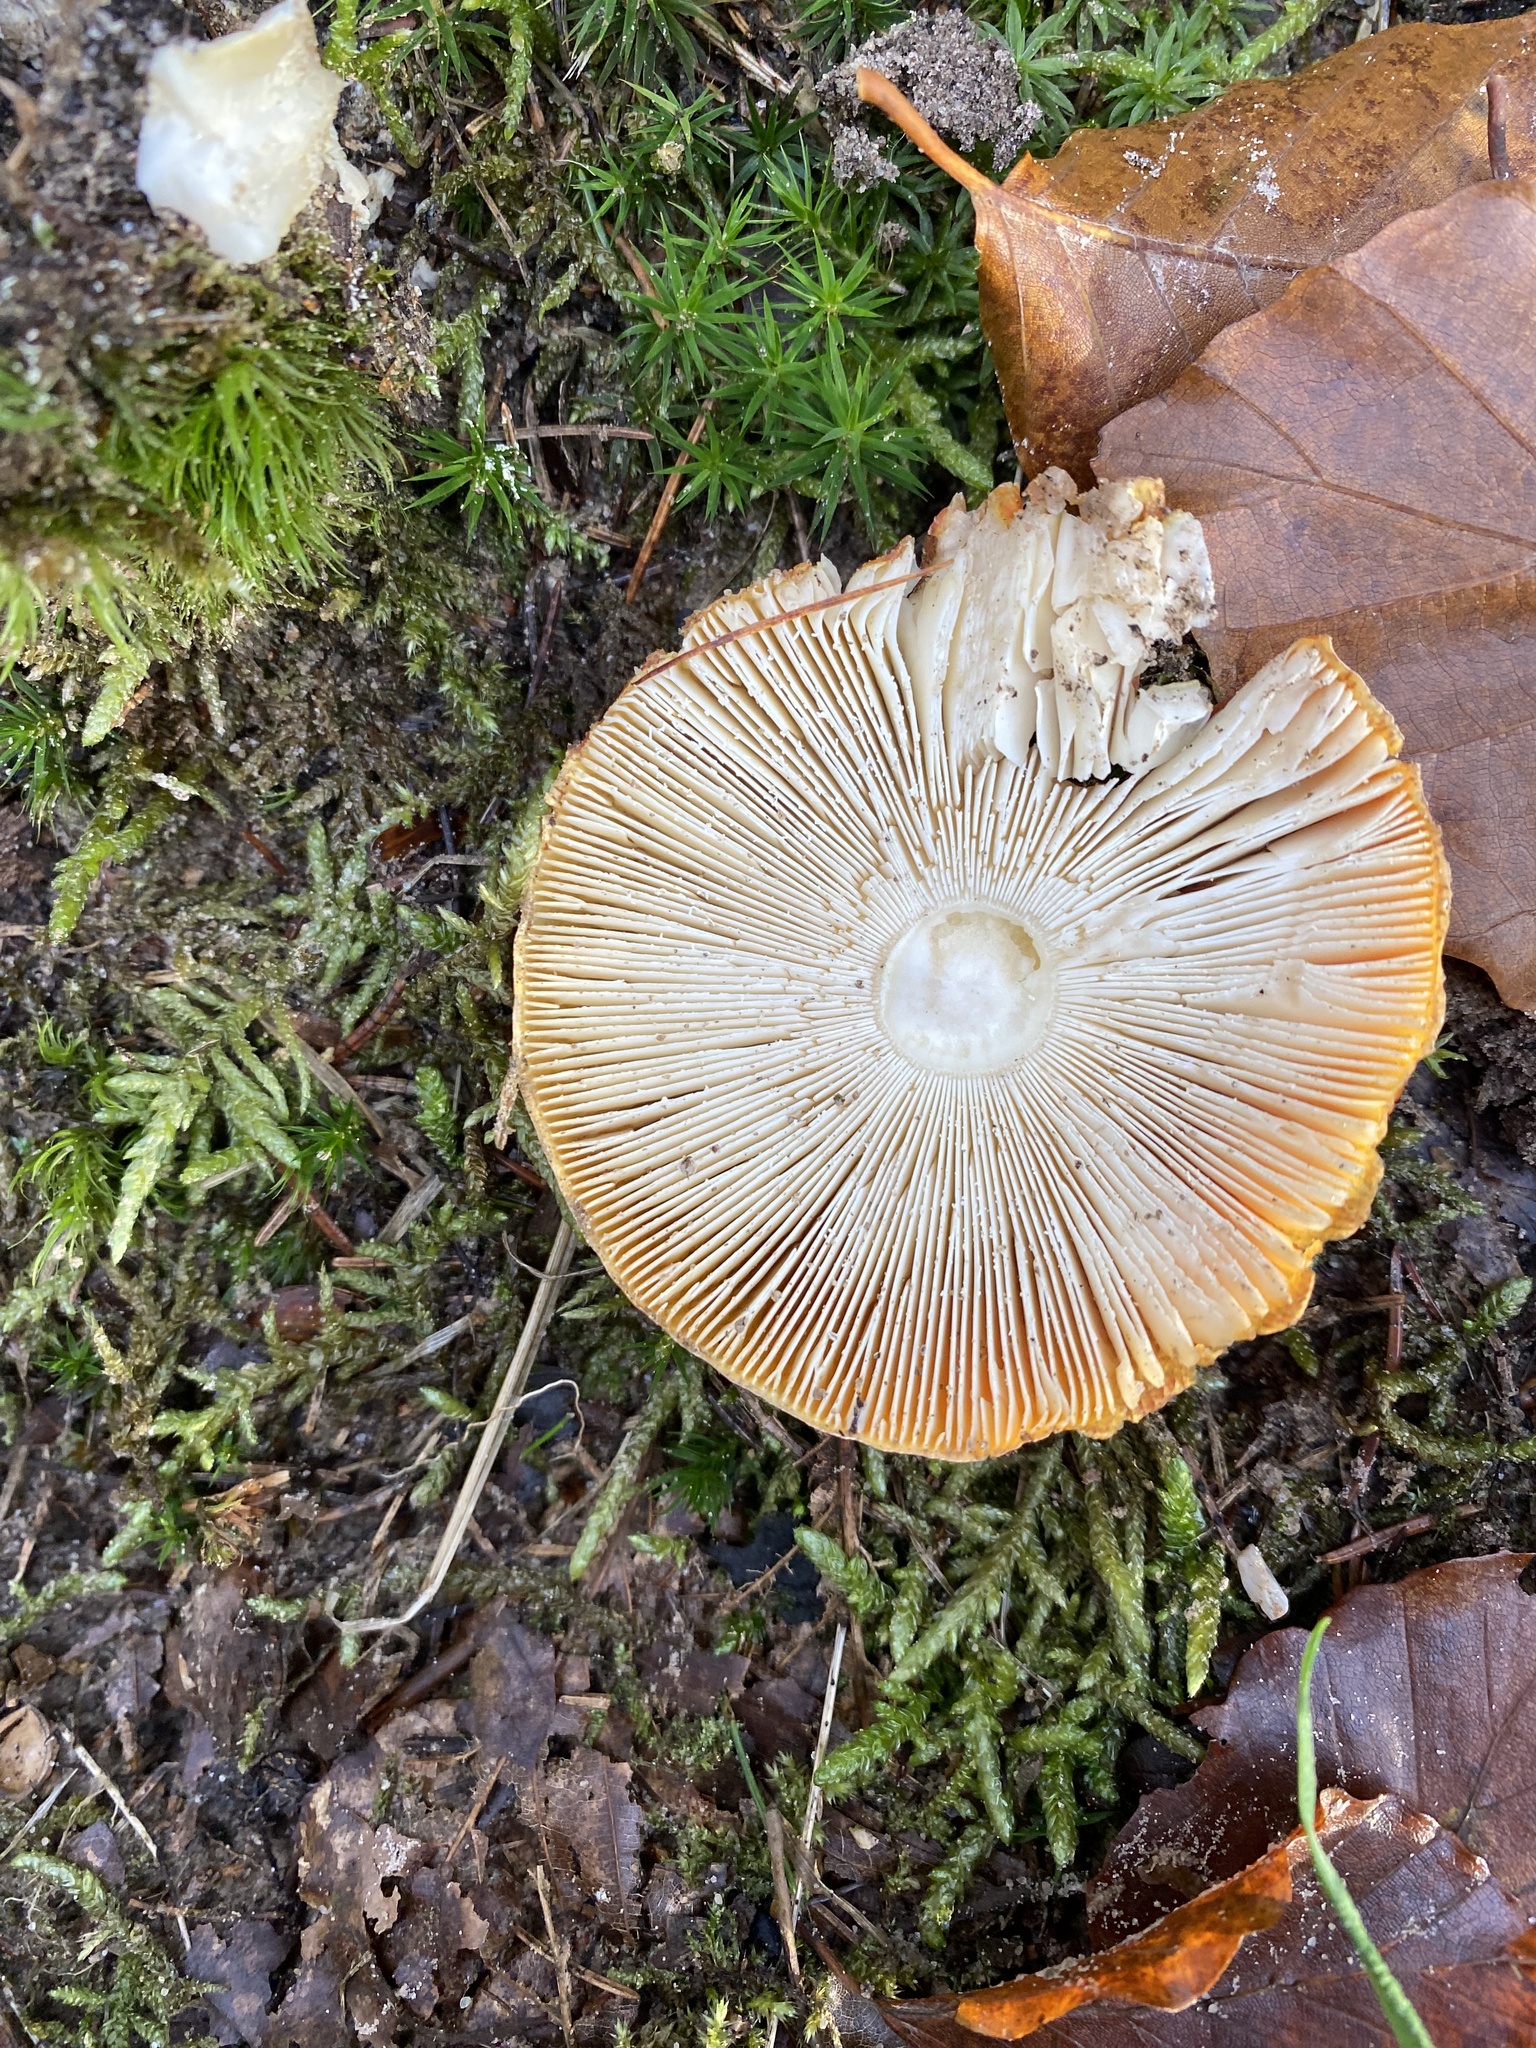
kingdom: Fungi
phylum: Basidiomycota
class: Agaricomycetes
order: Agaricales
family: Amanitaceae
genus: Amanita
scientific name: Amanita muscaria
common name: Fly agaric
